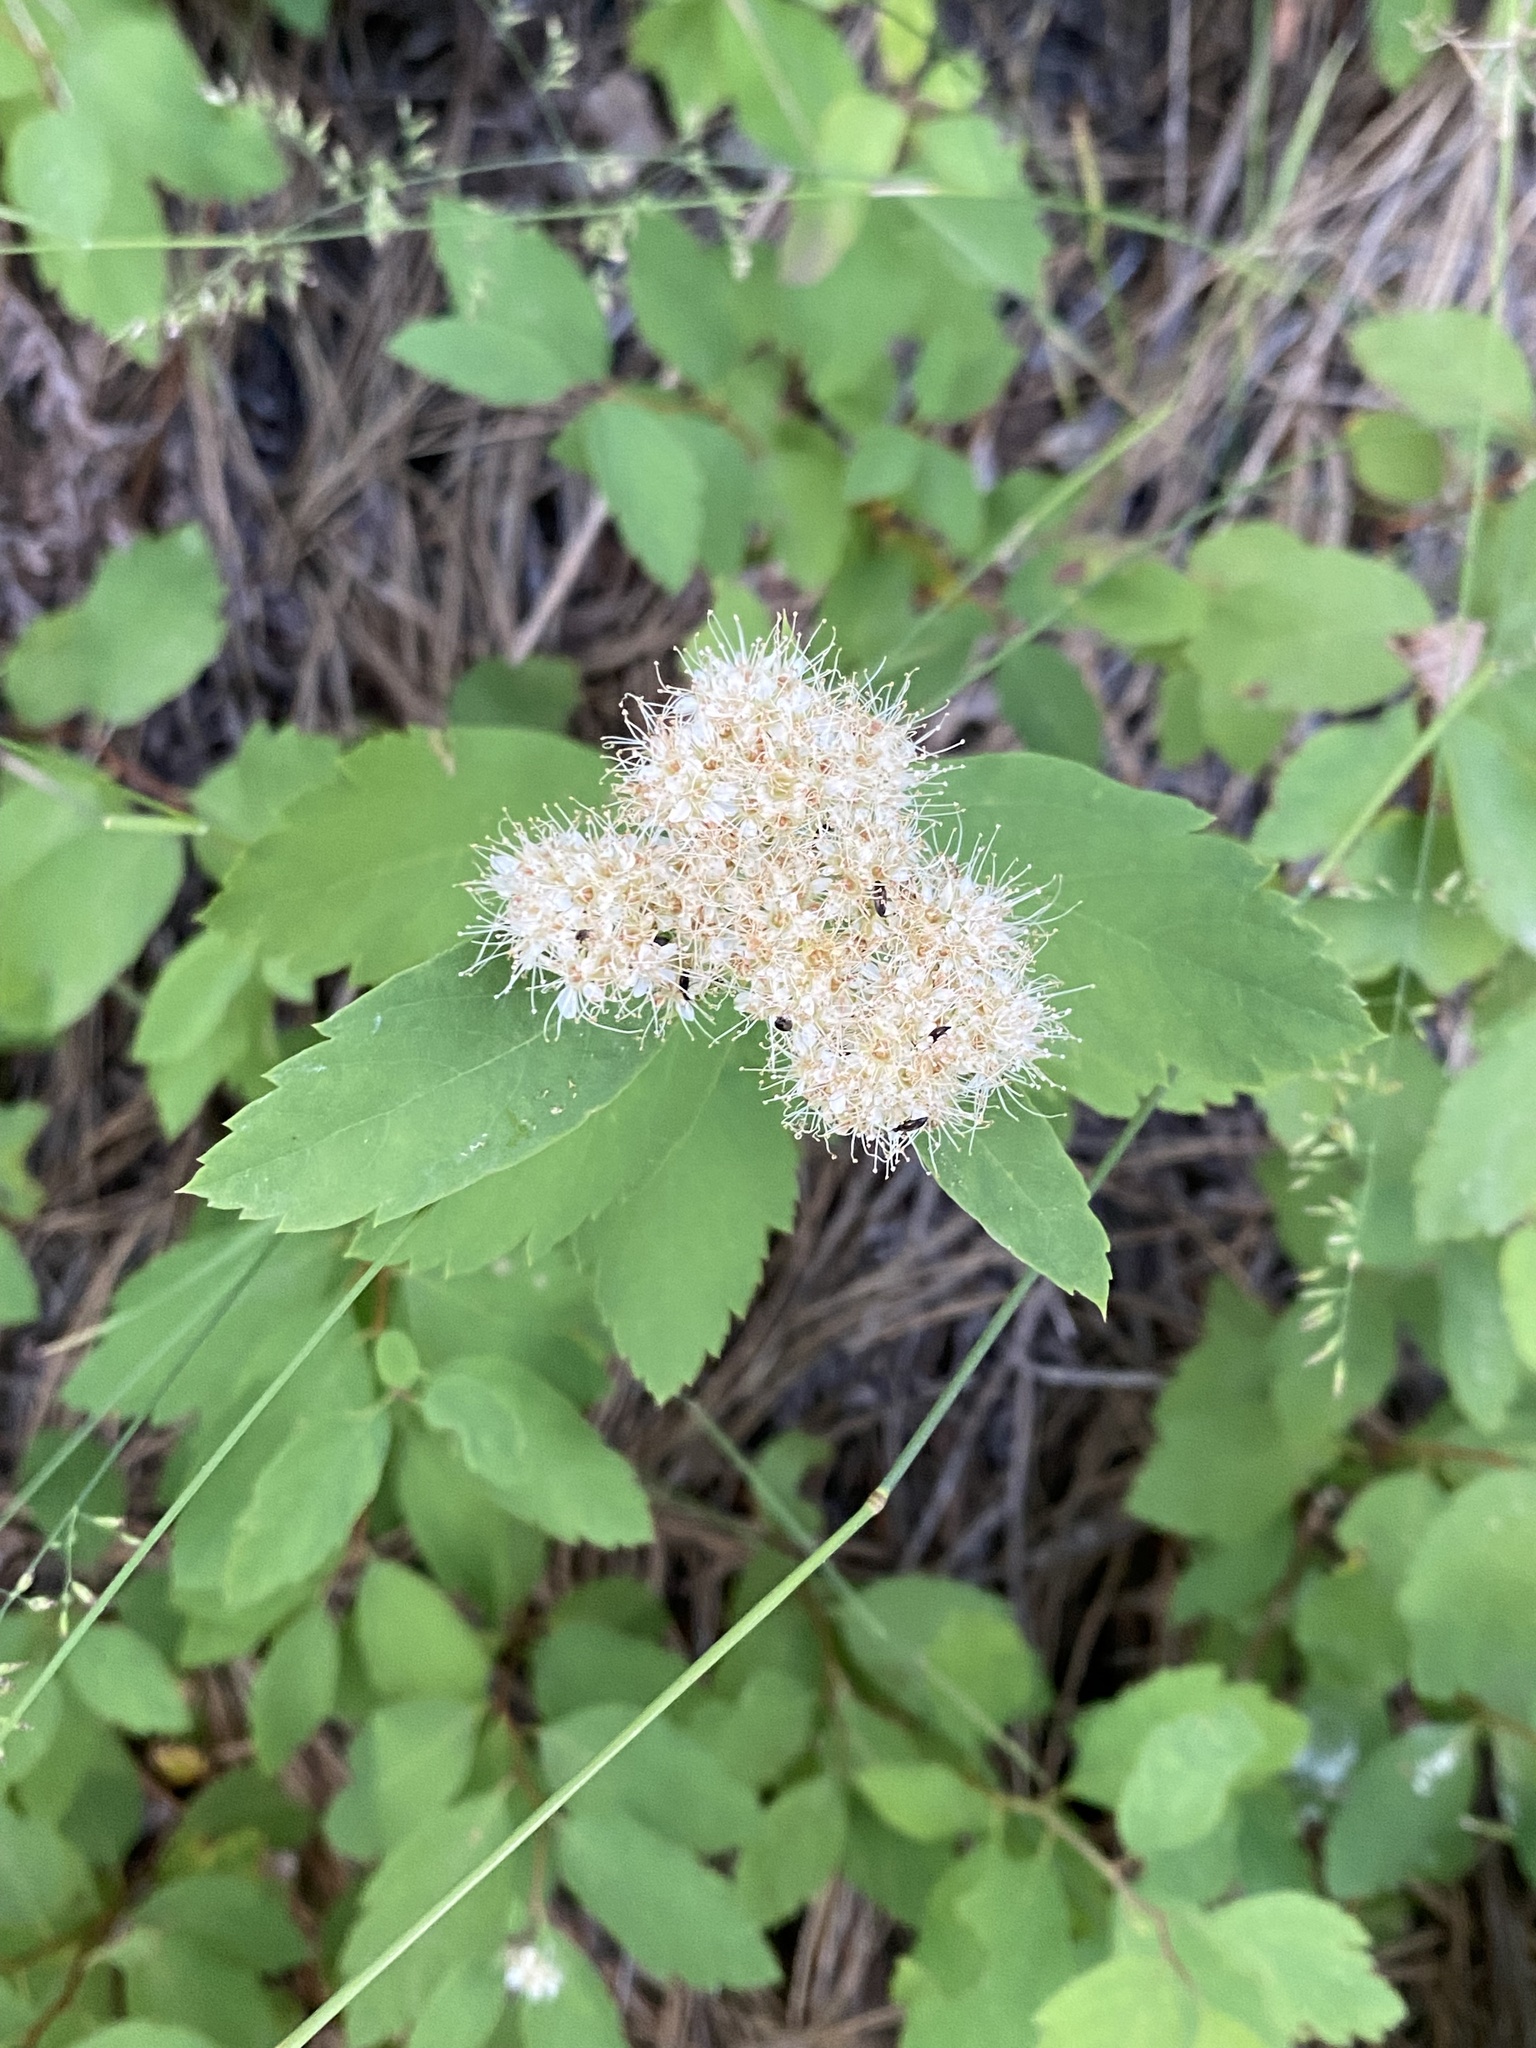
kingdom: Plantae
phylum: Tracheophyta
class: Magnoliopsida
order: Rosales
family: Rosaceae
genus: Spiraea
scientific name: Spiraea lucida
